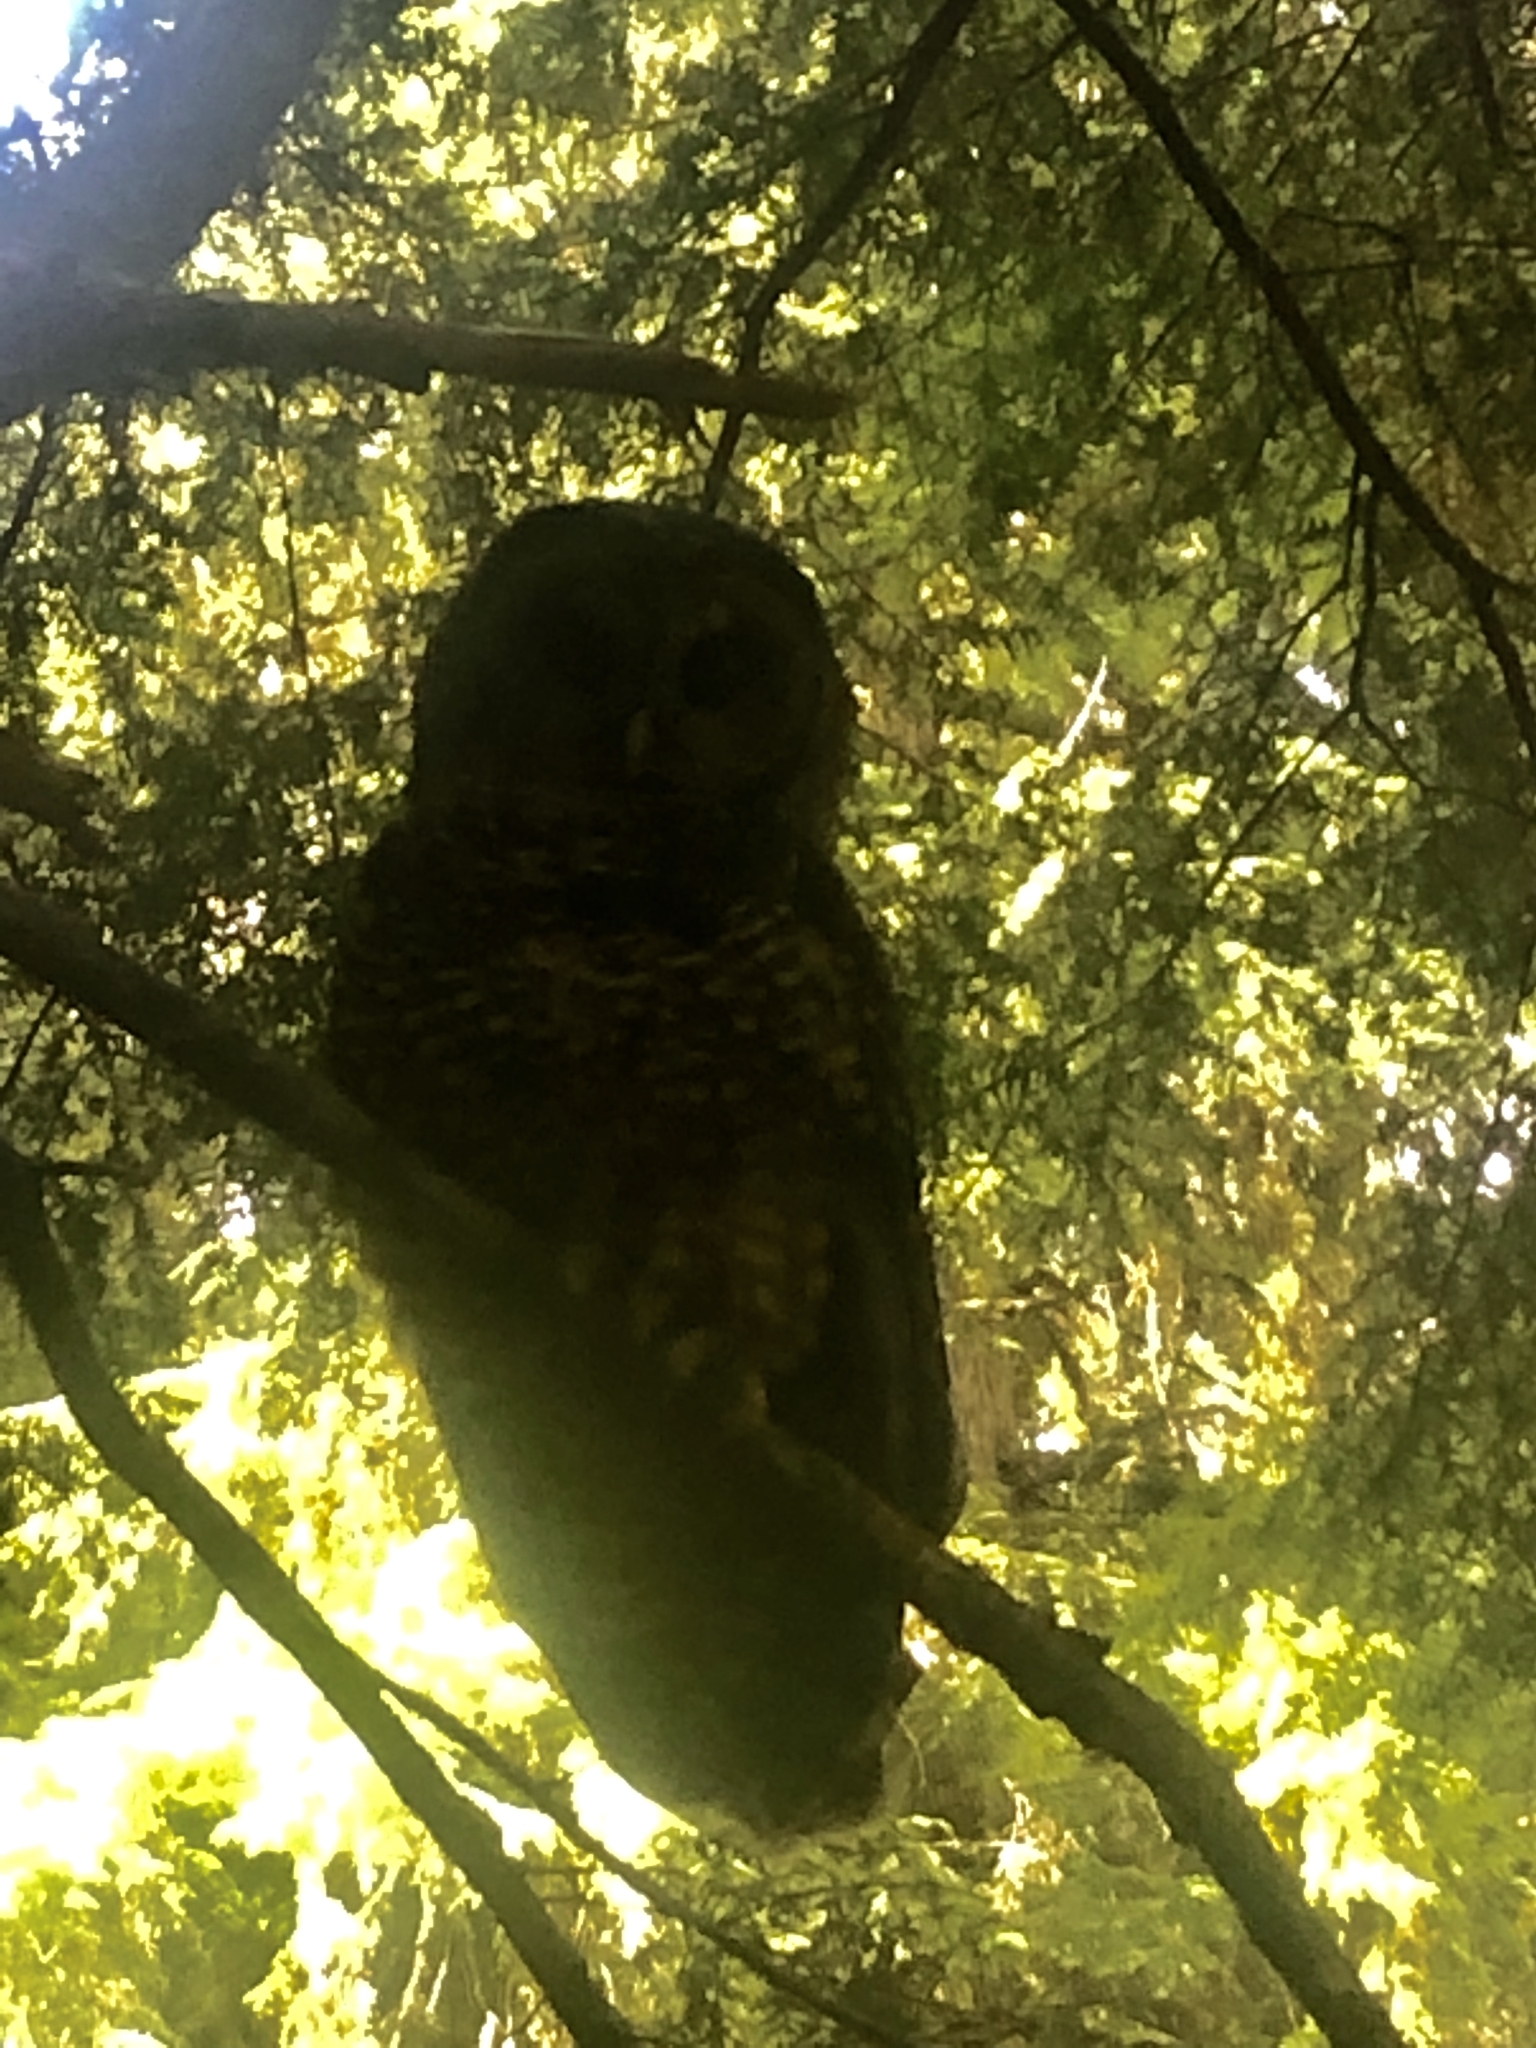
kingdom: Animalia
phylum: Chordata
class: Aves
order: Strigiformes
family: Strigidae
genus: Strix
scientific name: Strix occidentalis
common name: Spotted owl
